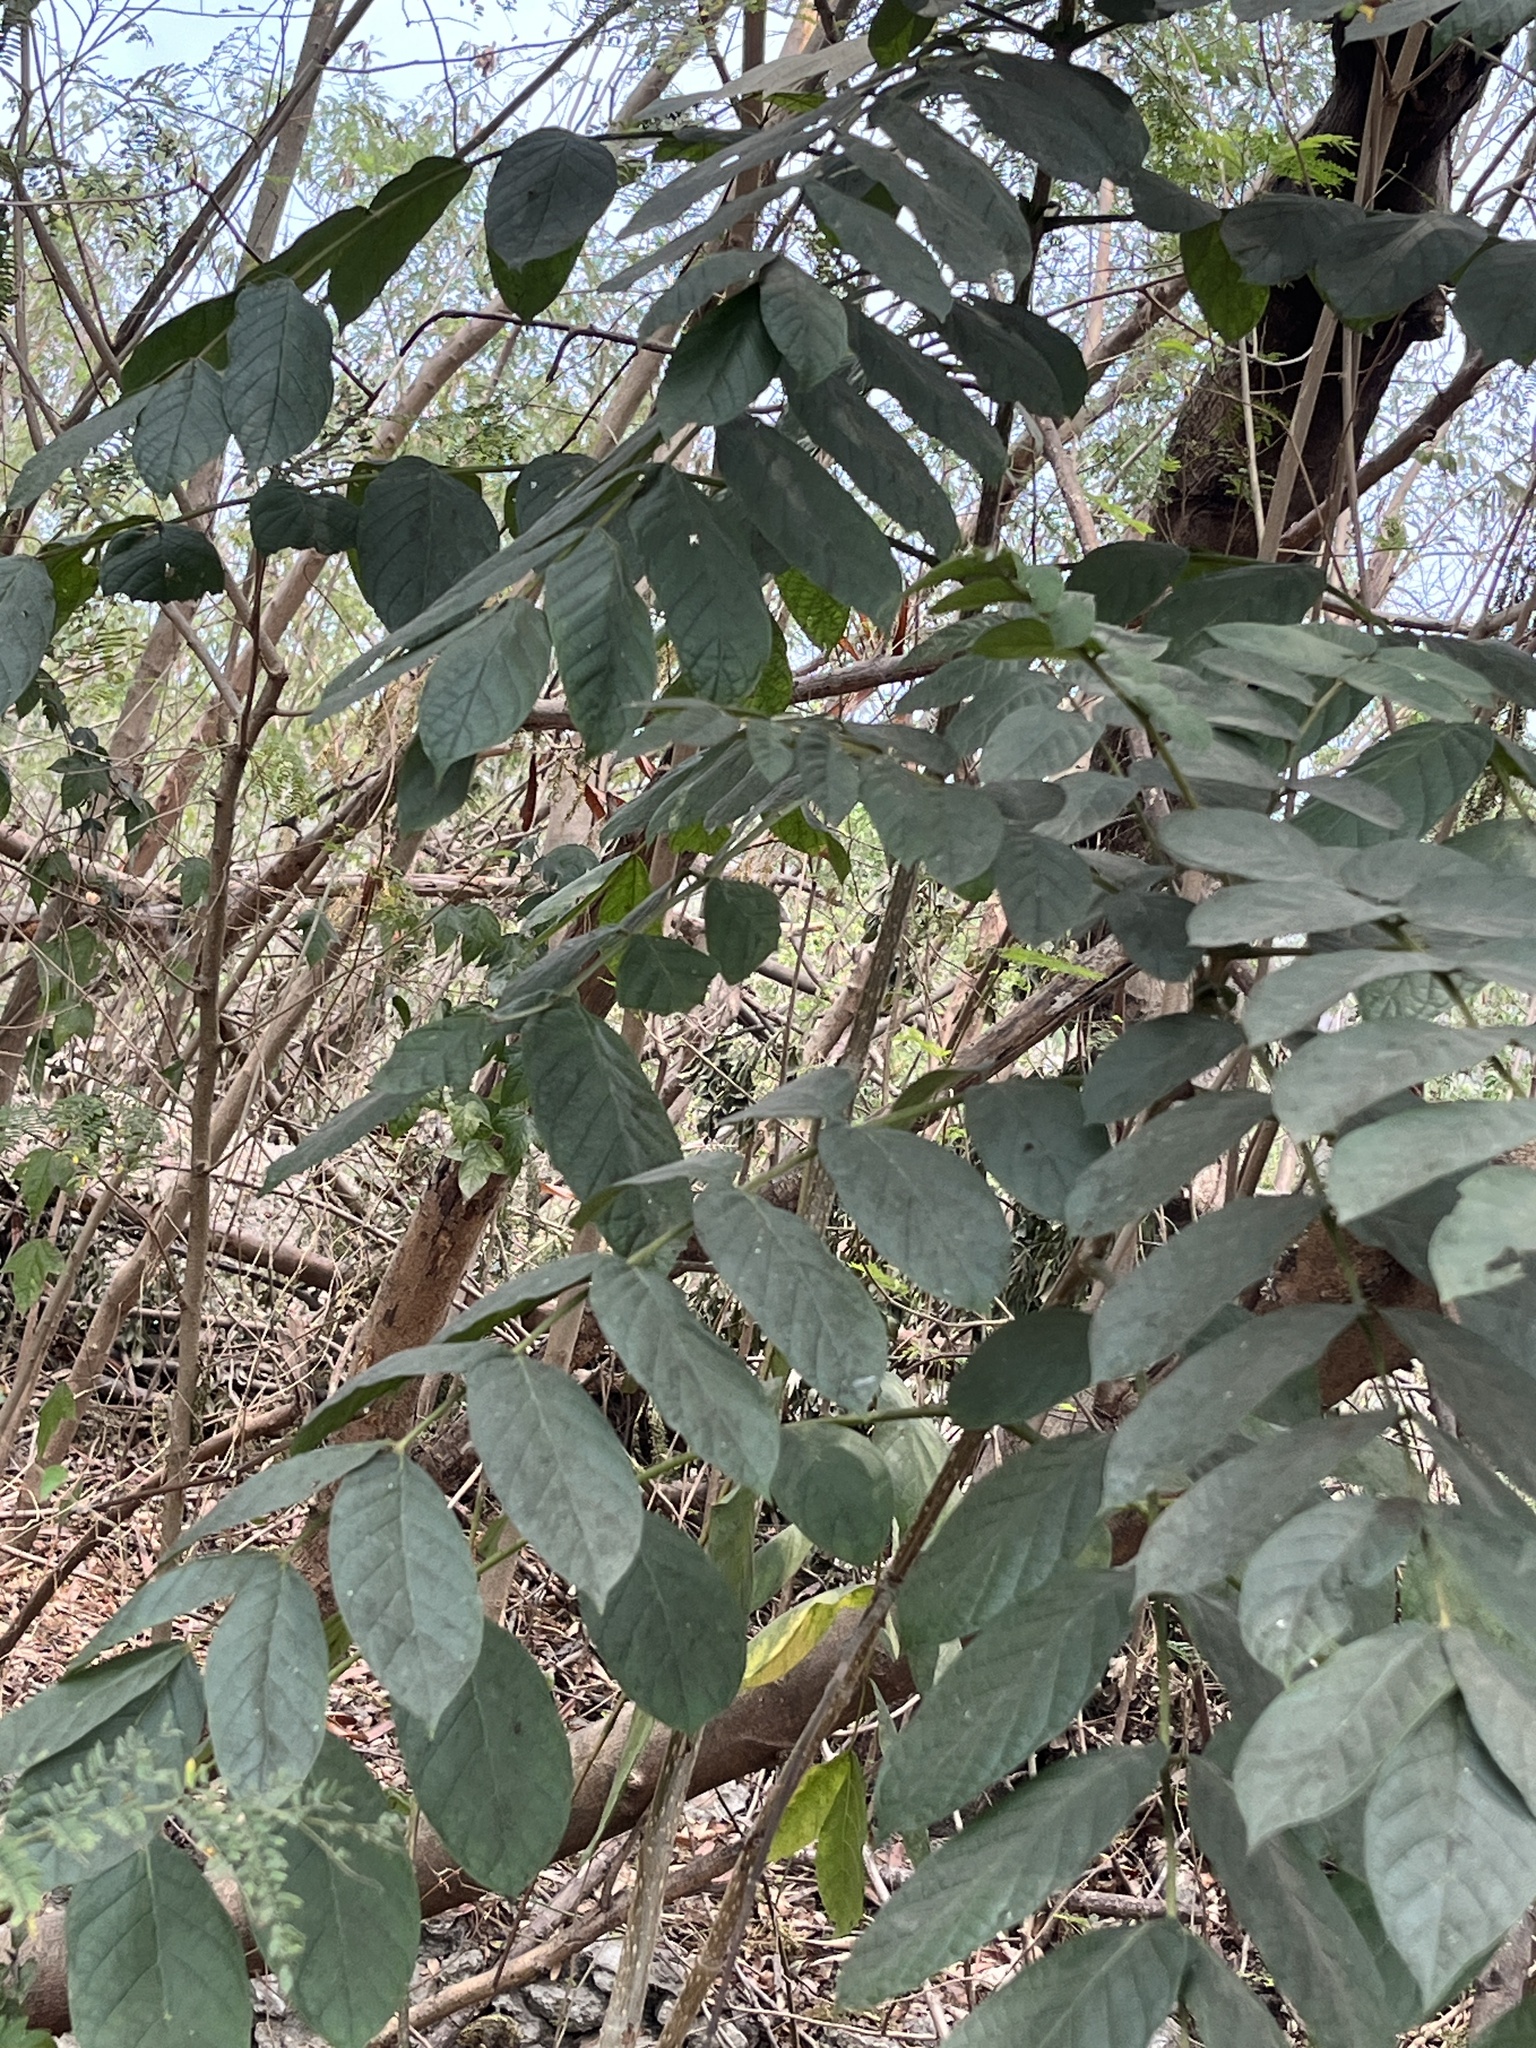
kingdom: Plantae
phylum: Tracheophyta
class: Magnoliopsida
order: Lamiales
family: Bignoniaceae
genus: Spathodea
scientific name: Spathodea campanulata
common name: African tuliptree
